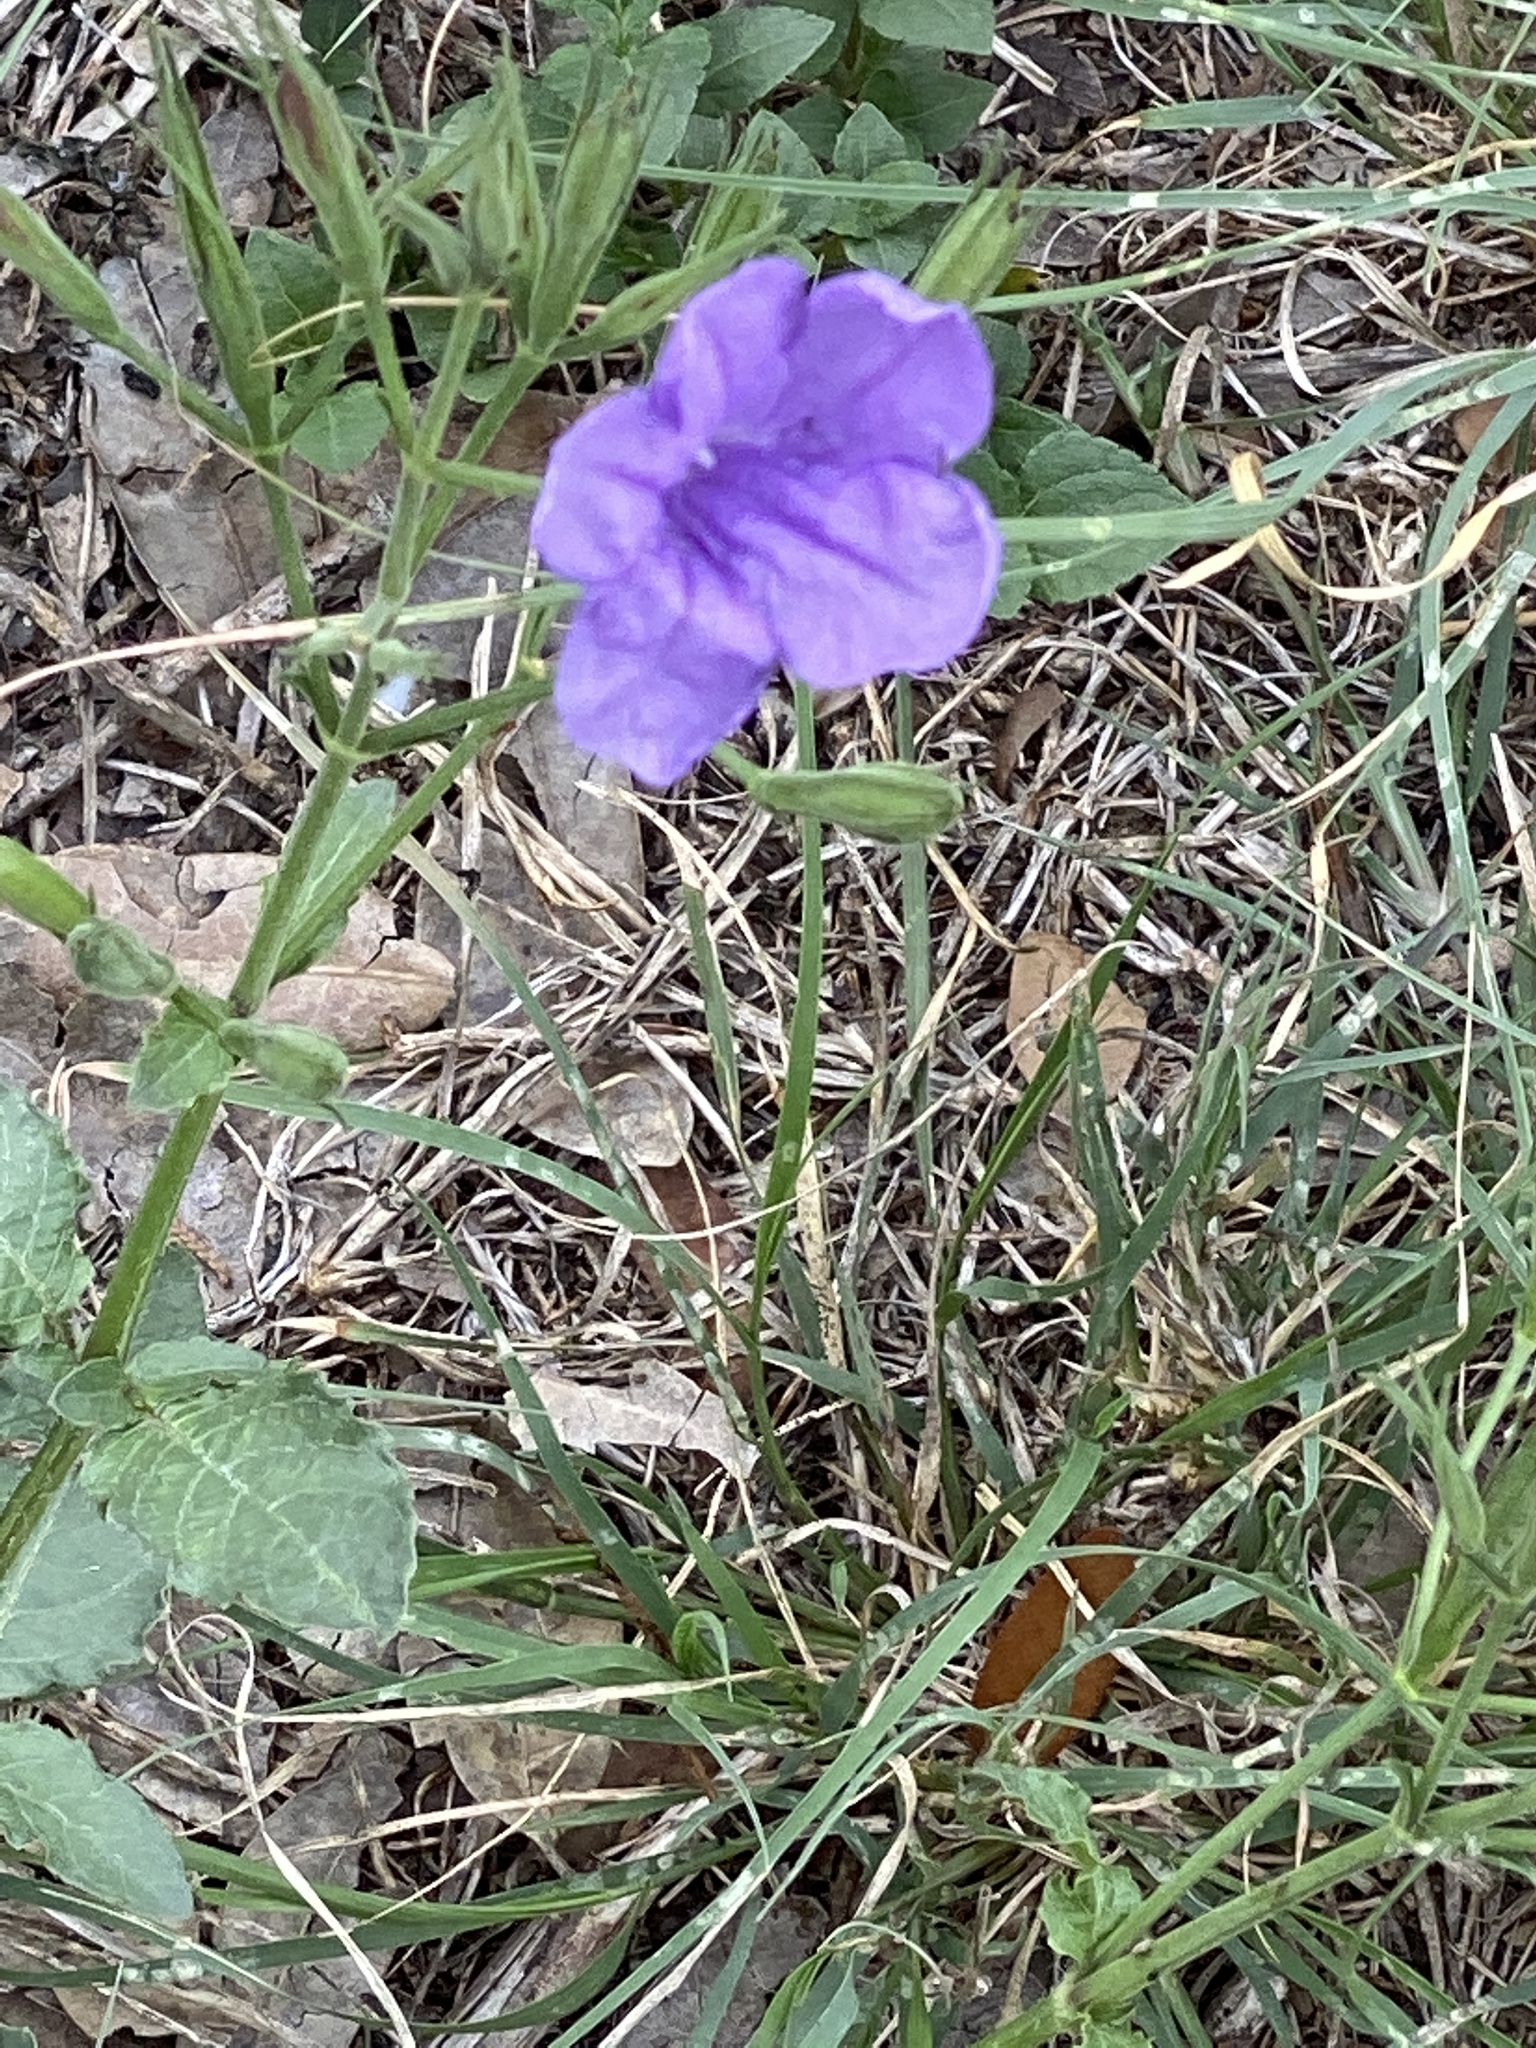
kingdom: Plantae
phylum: Tracheophyta
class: Magnoliopsida
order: Lamiales
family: Acanthaceae
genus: Ruellia
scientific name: Ruellia ciliatiflora
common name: Hairyflower wild petunia
